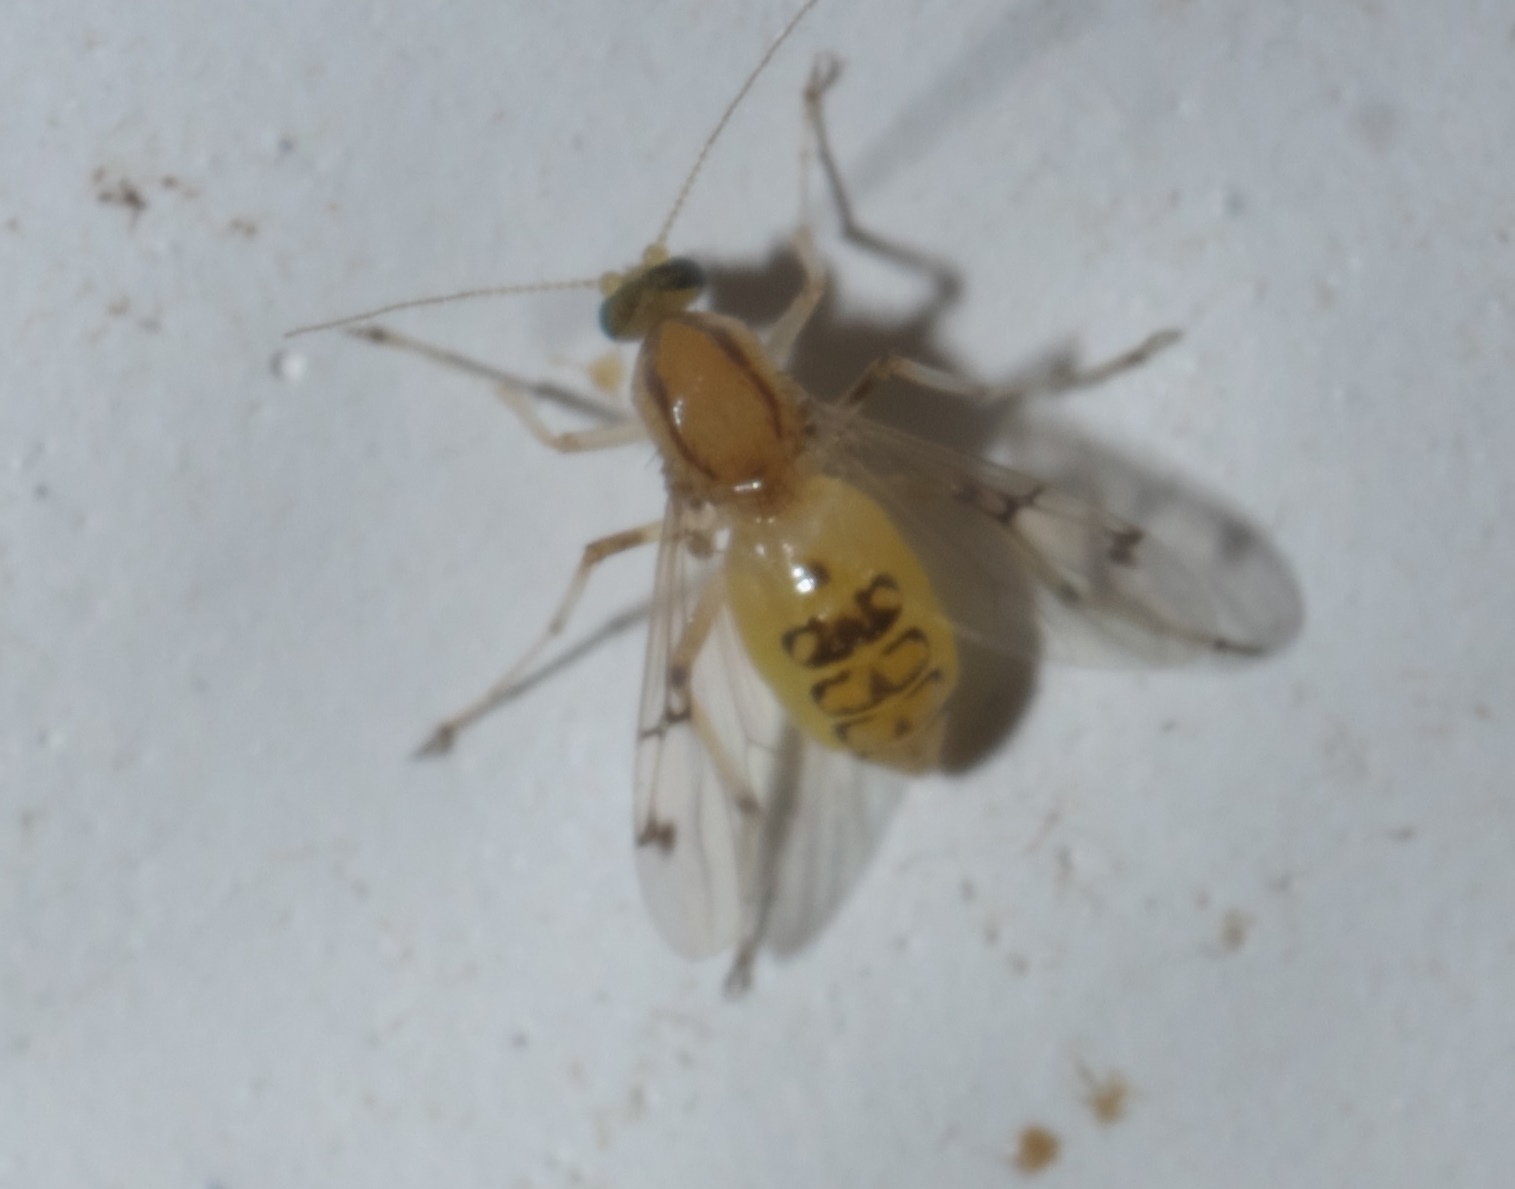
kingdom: Animalia
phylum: Arthropoda
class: Insecta
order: Diptera
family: Ceratopogonidae
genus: Stilobezzia
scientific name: Stilobezzia coquilletti
